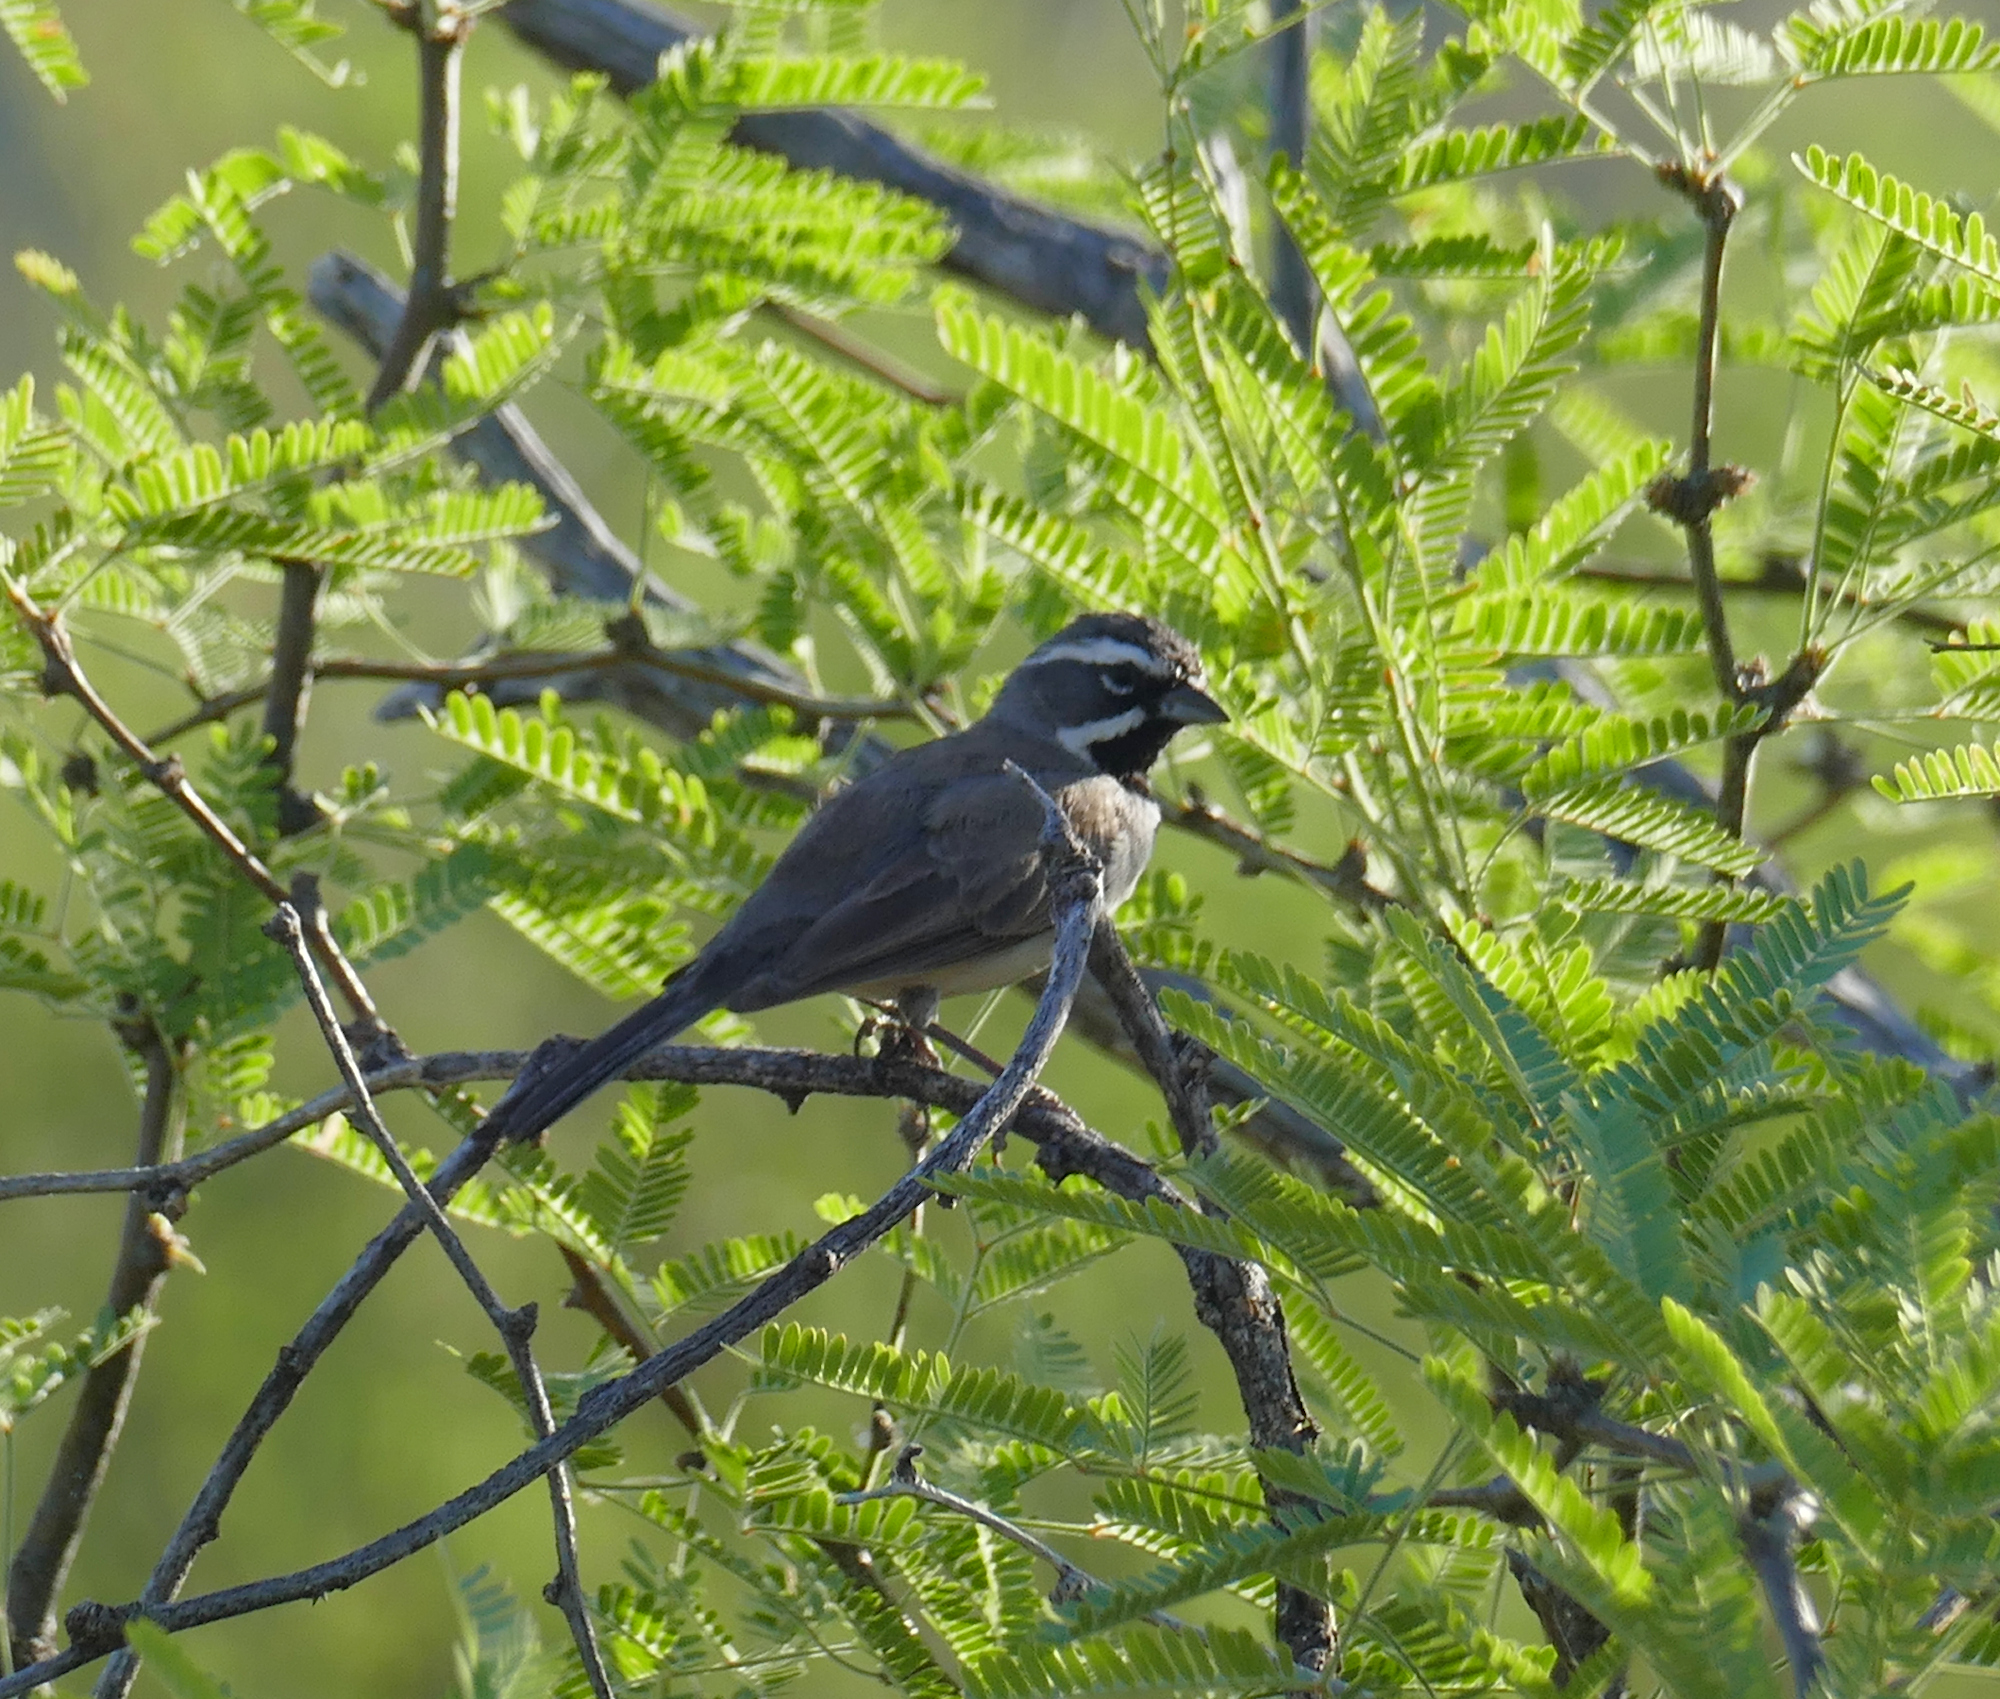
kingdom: Animalia
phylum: Chordata
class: Aves
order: Passeriformes
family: Passerellidae
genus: Amphispiza
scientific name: Amphispiza bilineata
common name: Black-throated sparrow
